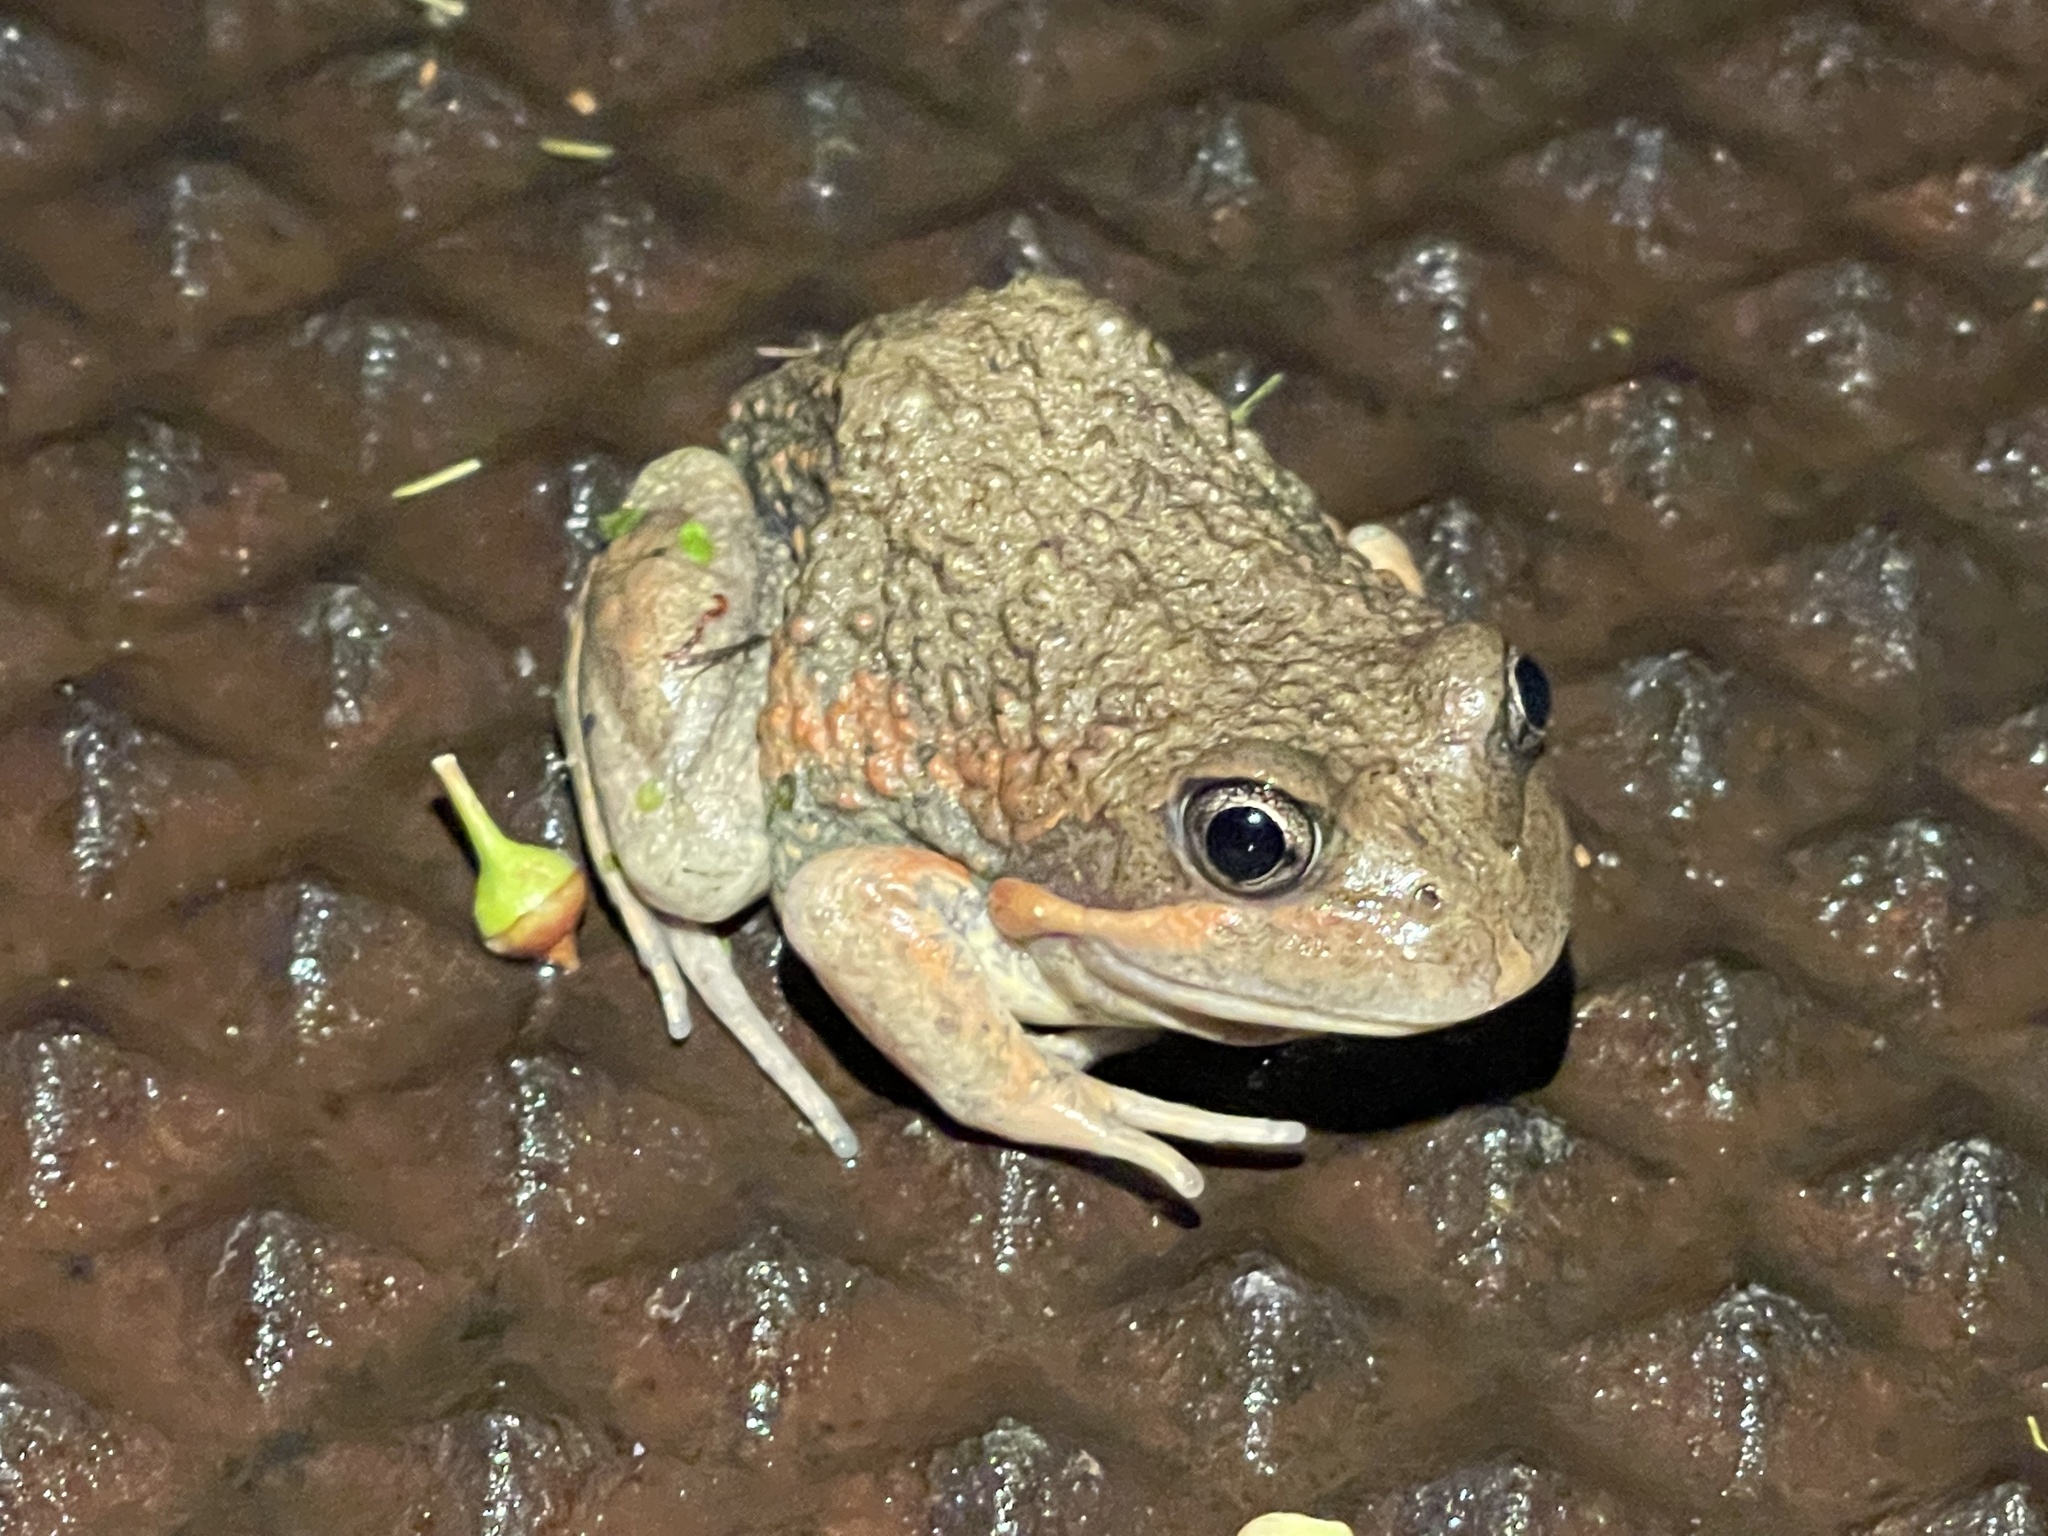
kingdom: Animalia
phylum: Chordata
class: Amphibia
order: Anura
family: Limnodynastidae
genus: Limnodynastes
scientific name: Limnodynastes dumerilii
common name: Banjo frog
